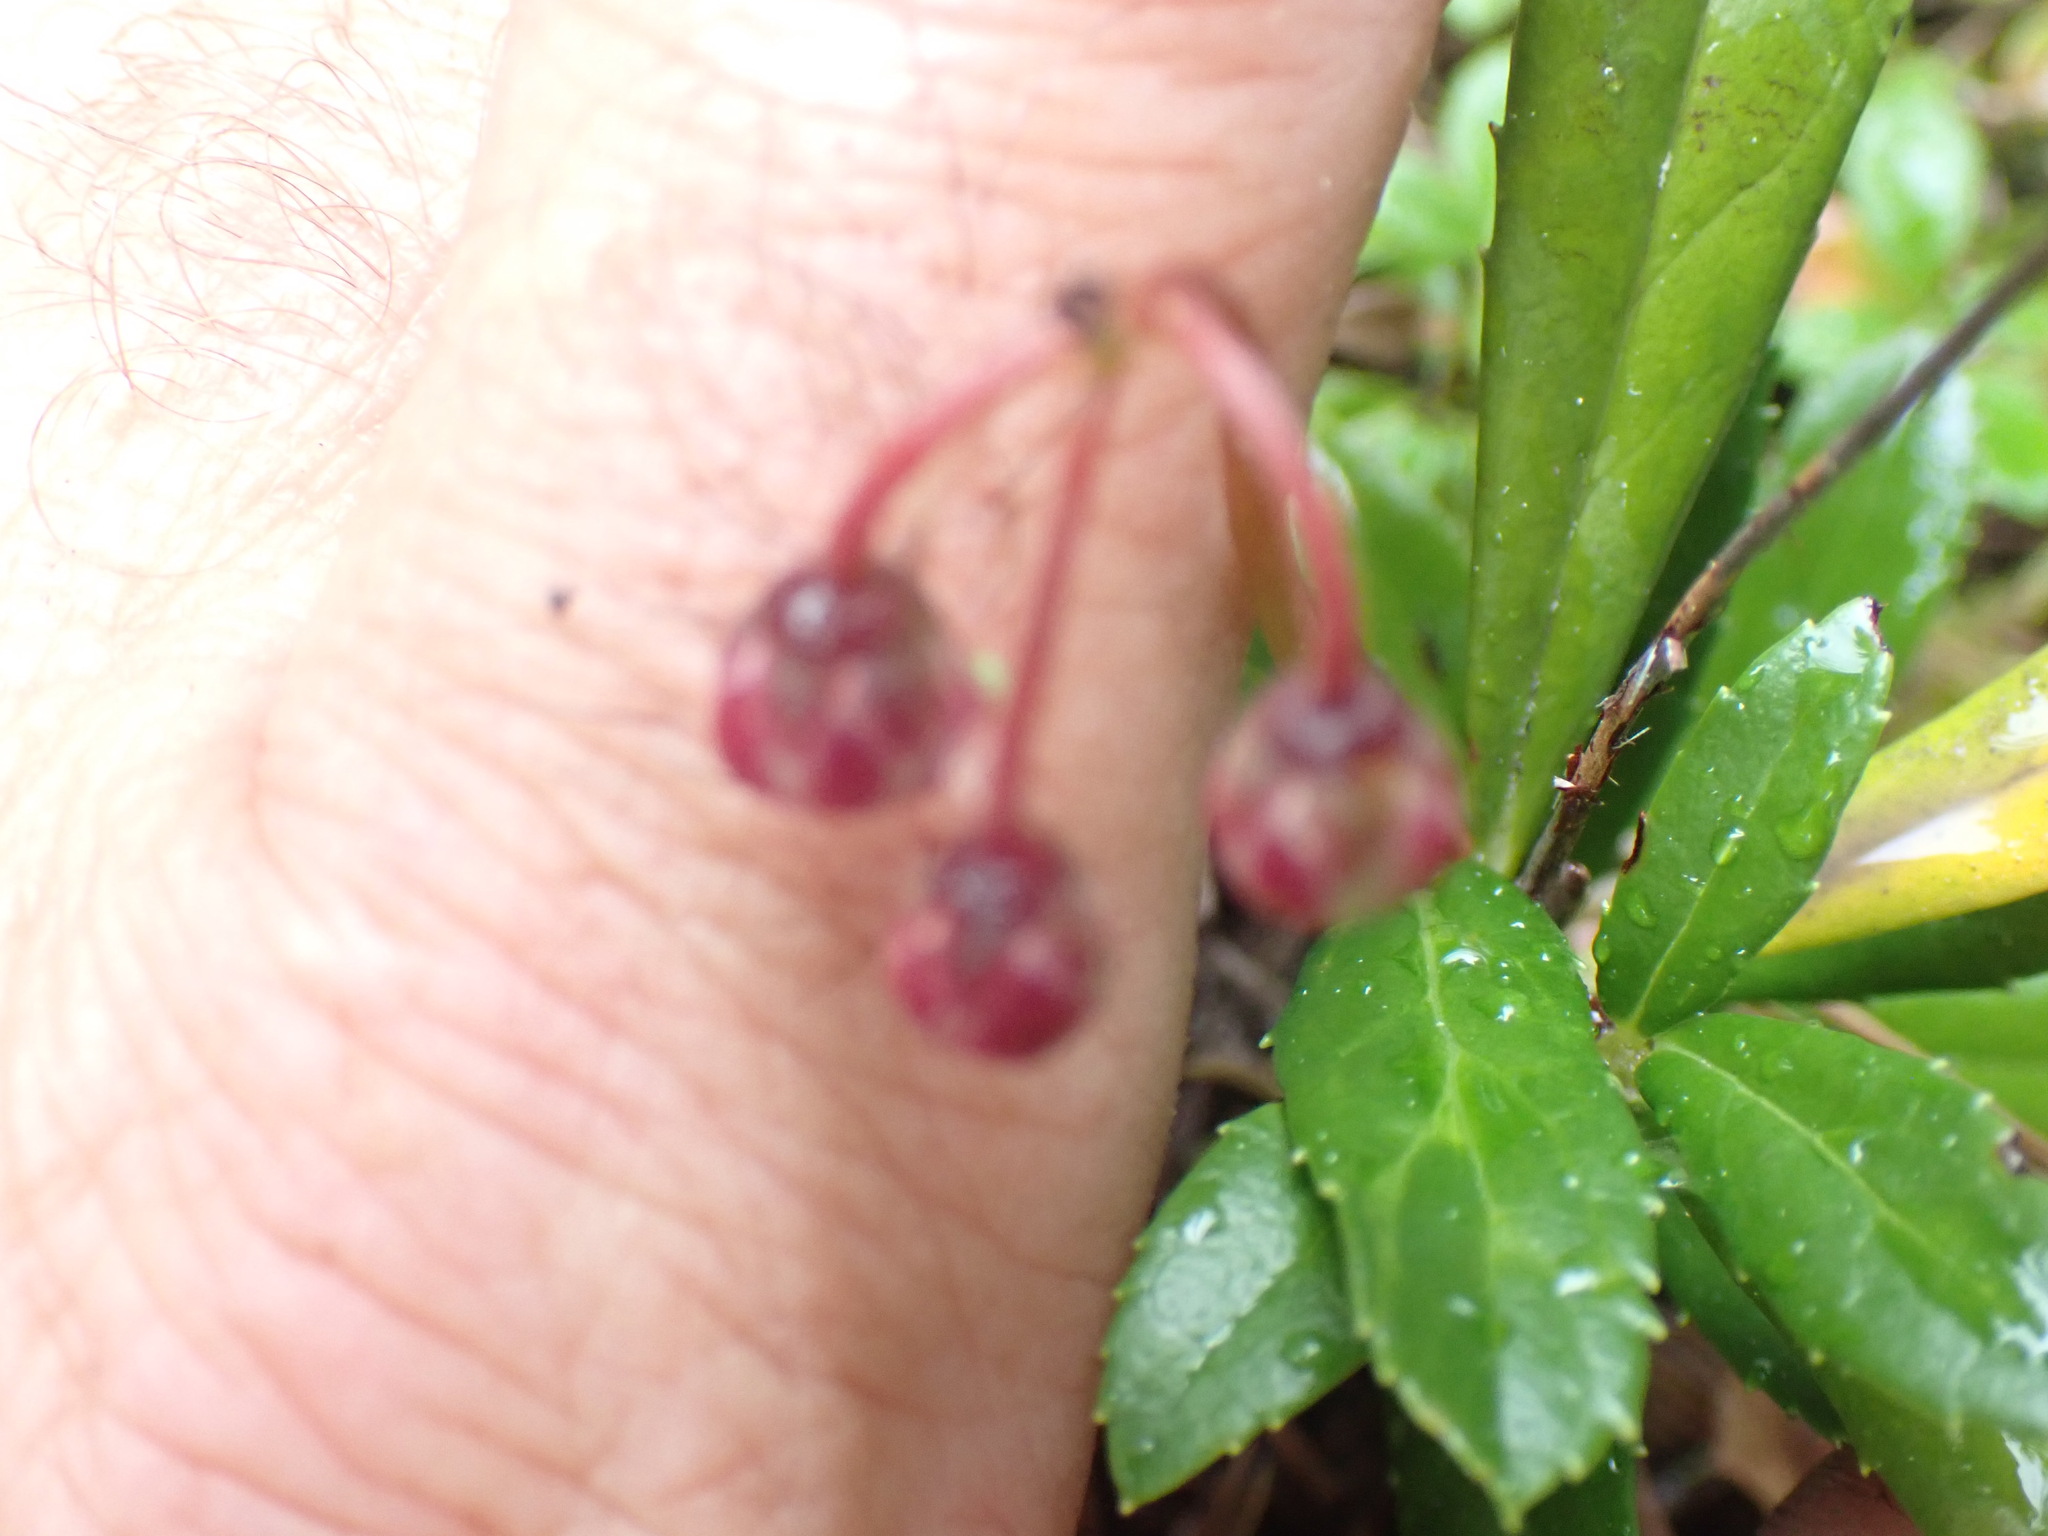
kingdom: Plantae
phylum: Tracheophyta
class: Magnoliopsida
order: Ericales
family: Ericaceae
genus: Chimaphila
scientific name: Chimaphila umbellata
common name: Pipsissewa
